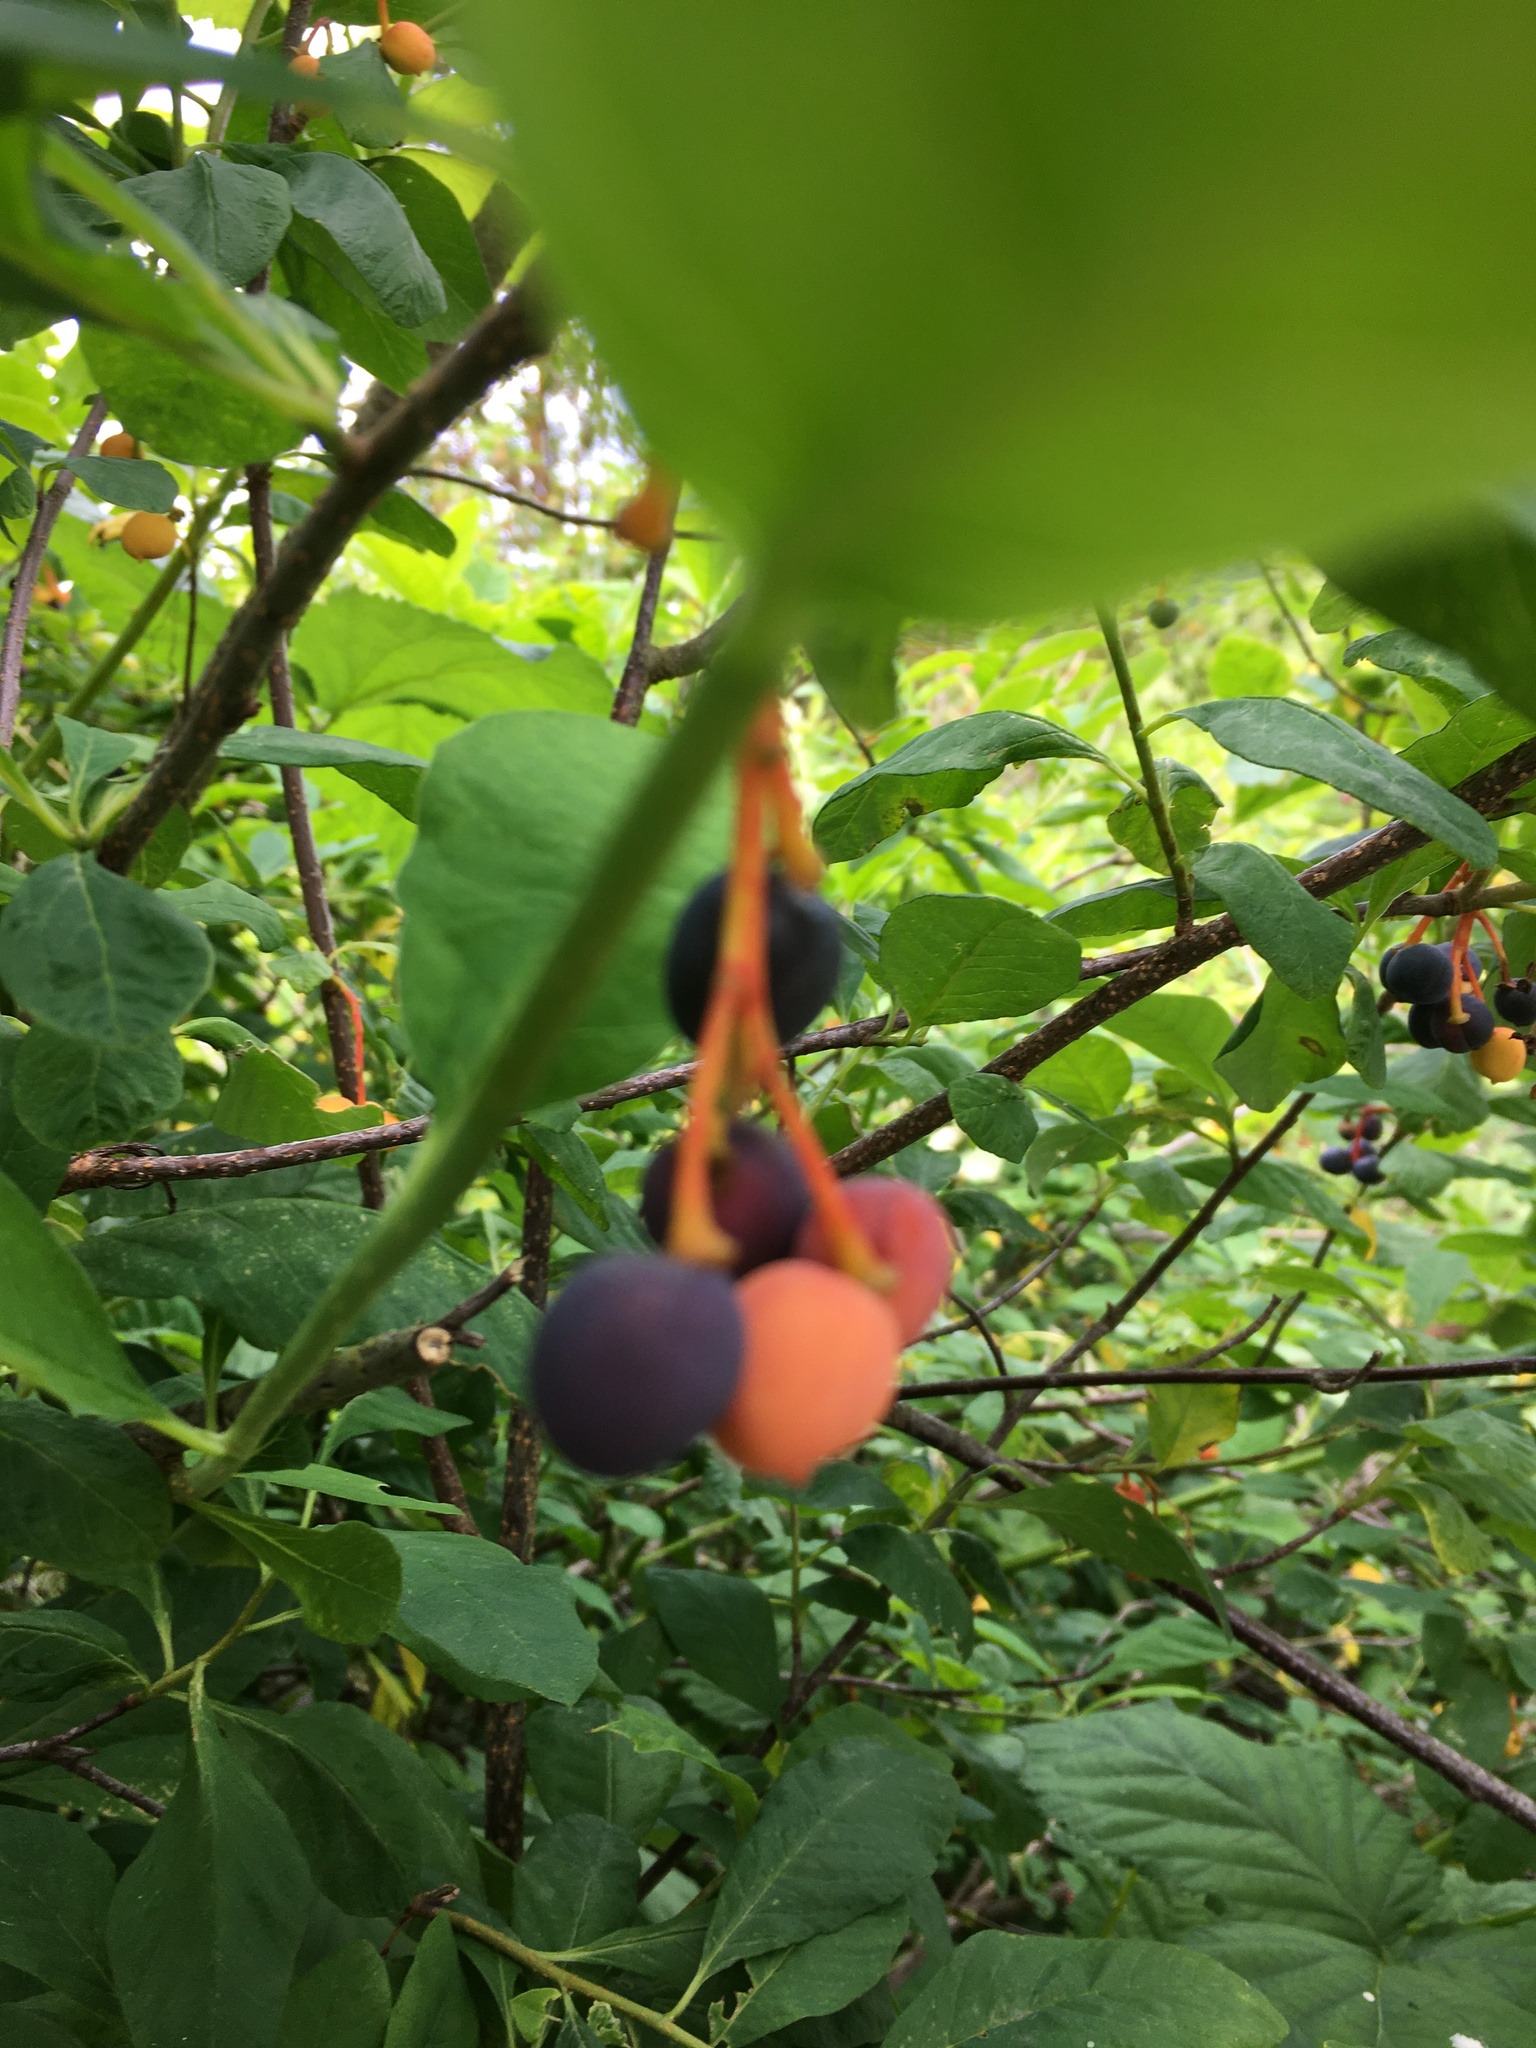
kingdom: Plantae
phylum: Tracheophyta
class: Magnoliopsida
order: Rosales
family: Rosaceae
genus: Oemleria
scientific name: Oemleria cerasiformis
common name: Osoberry
